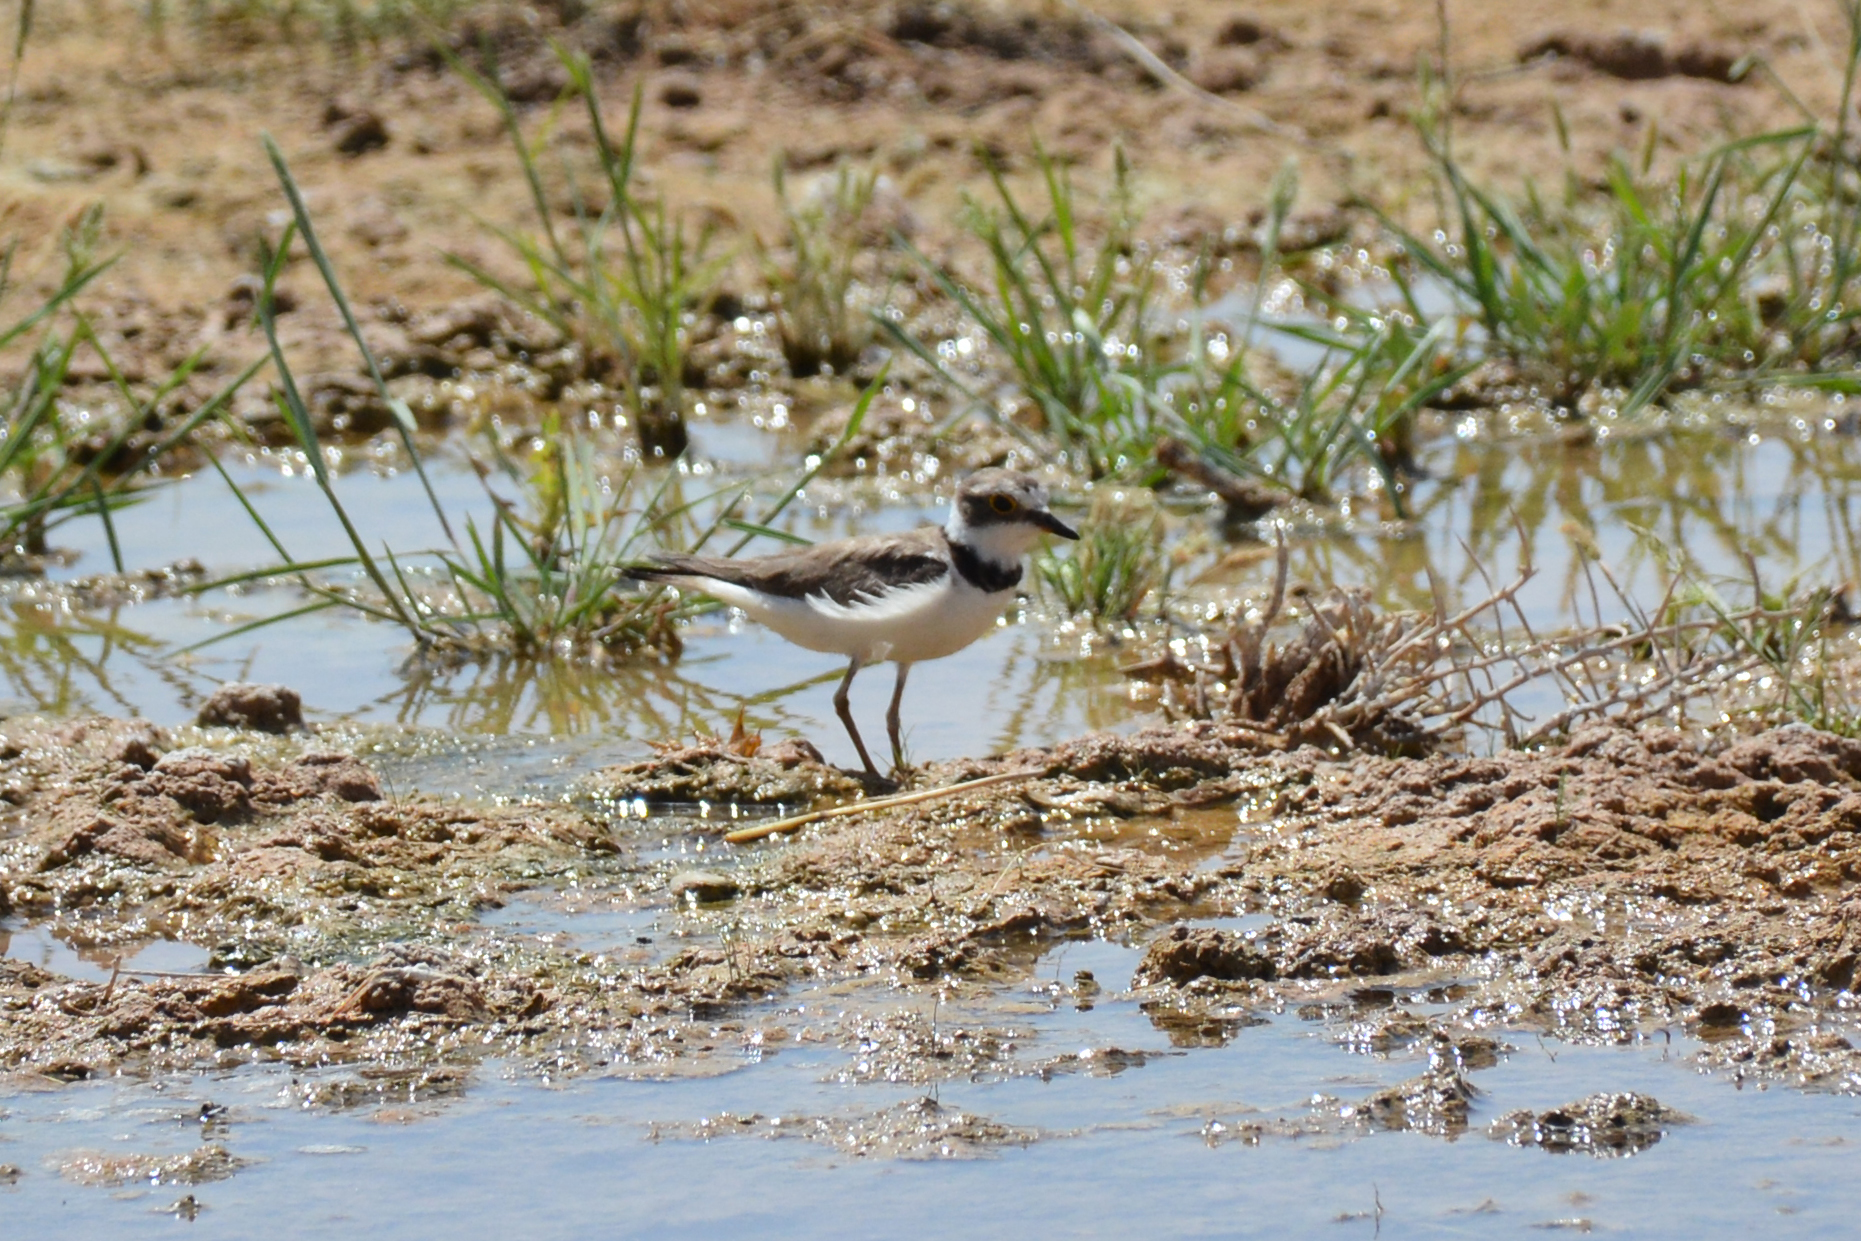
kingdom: Animalia
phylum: Chordata
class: Aves
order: Charadriiformes
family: Charadriidae
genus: Charadrius
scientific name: Charadrius dubius
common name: Little ringed plover
